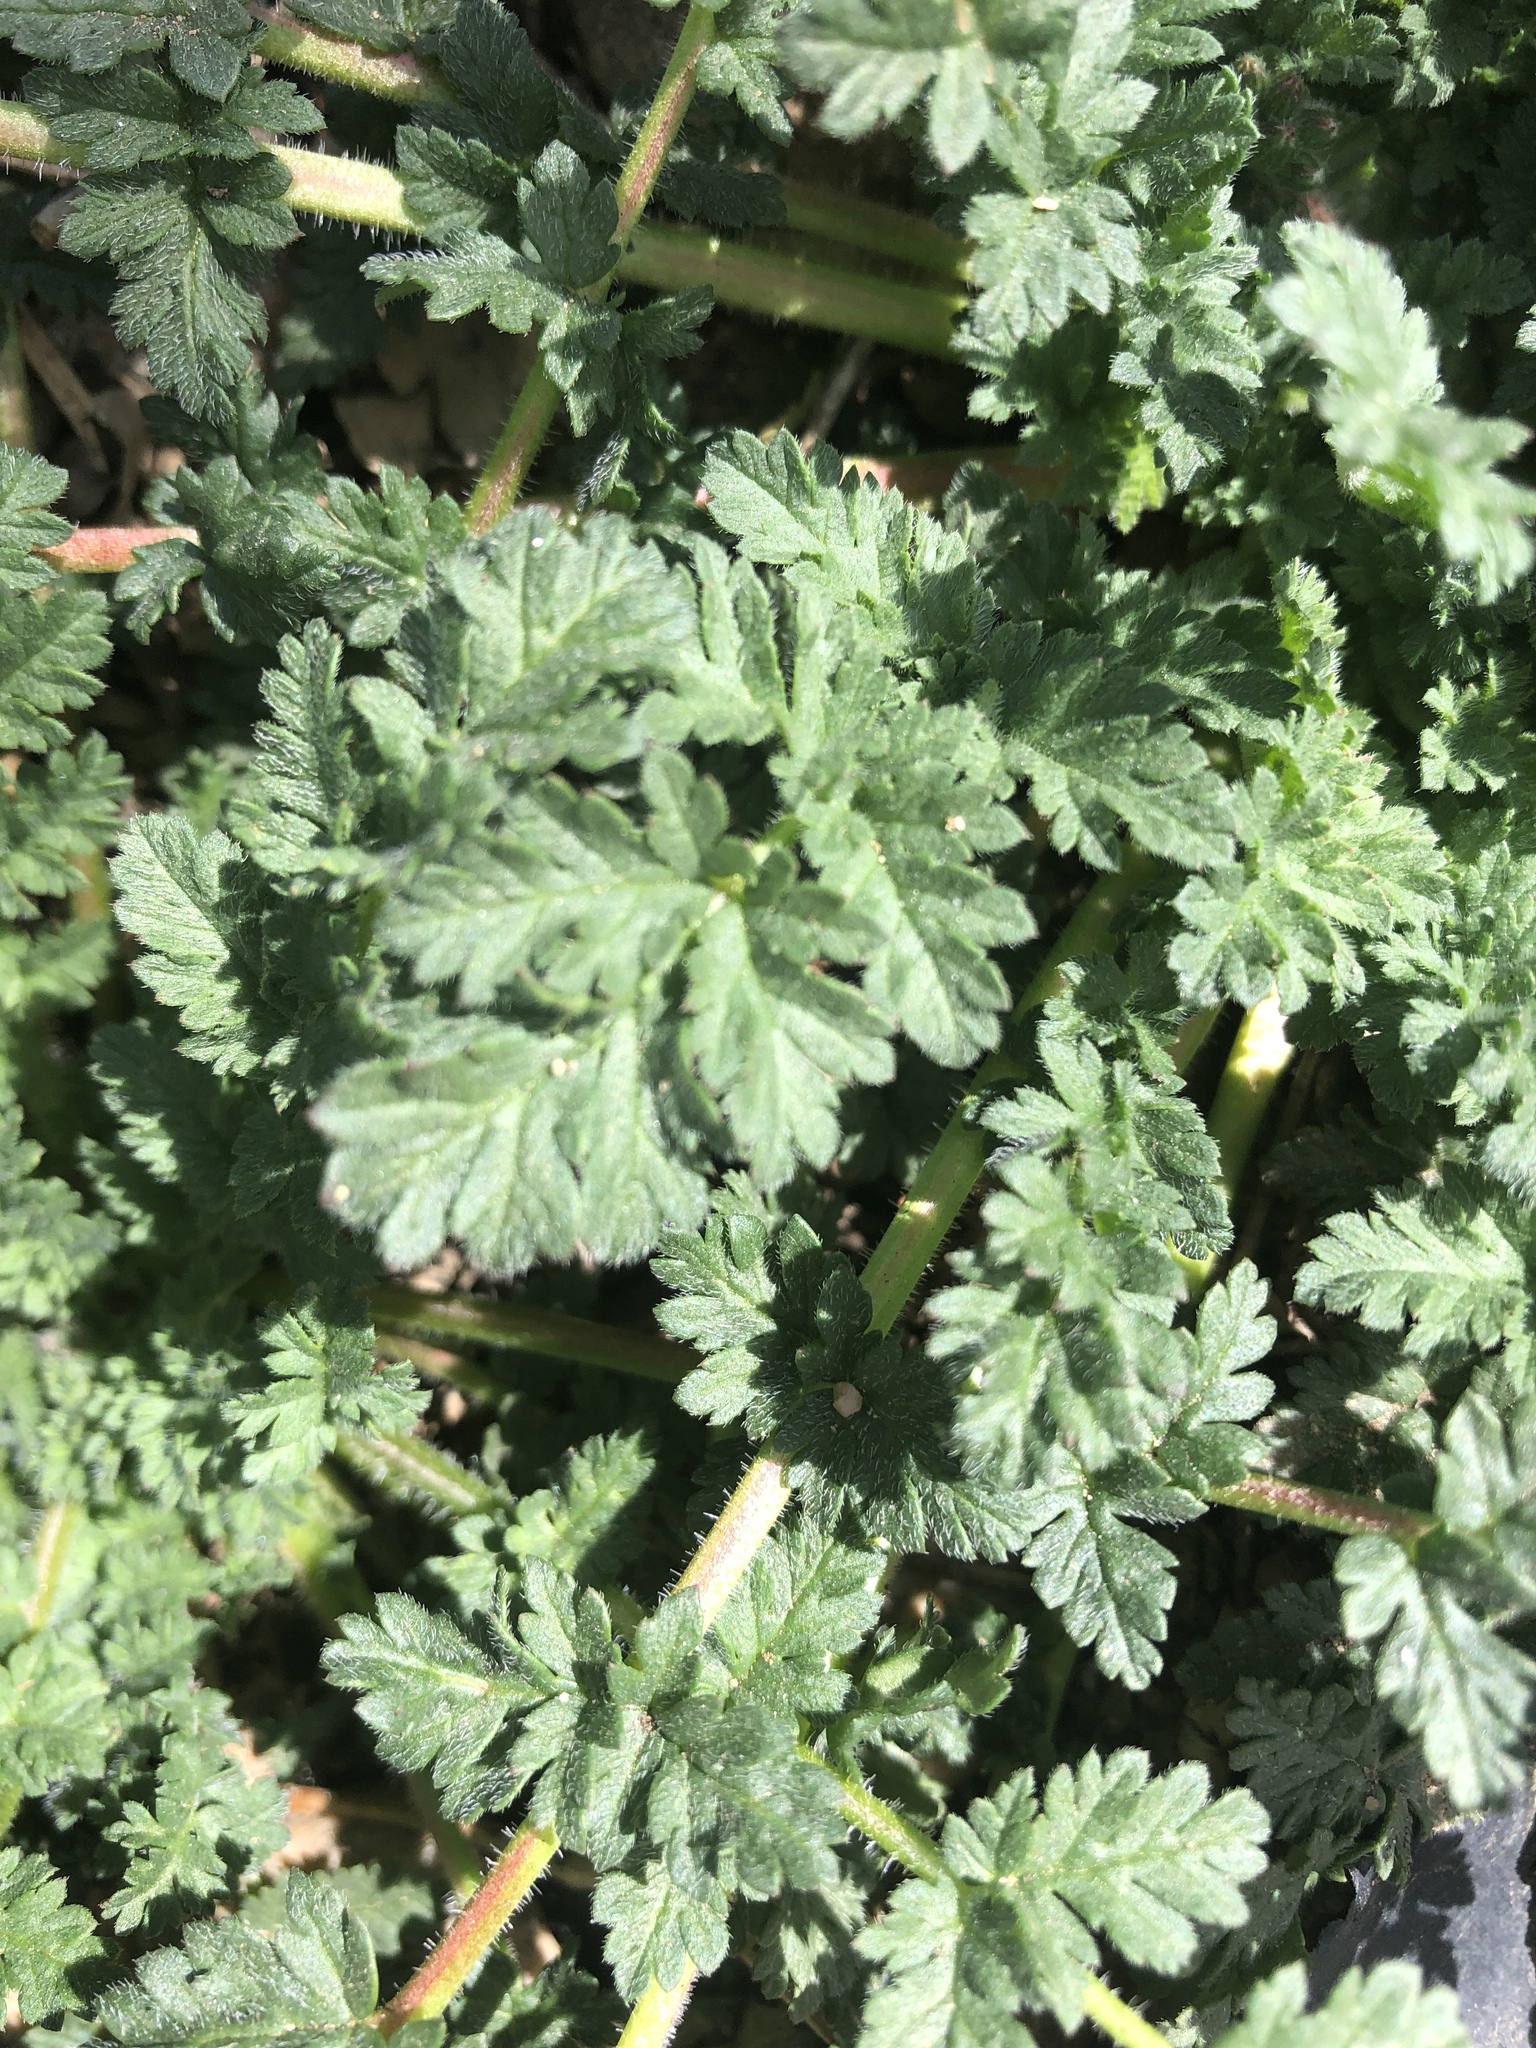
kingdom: Plantae
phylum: Tracheophyta
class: Magnoliopsida
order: Geraniales
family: Geraniaceae
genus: Erodium
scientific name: Erodium cicutarium
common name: Common stork's-bill
